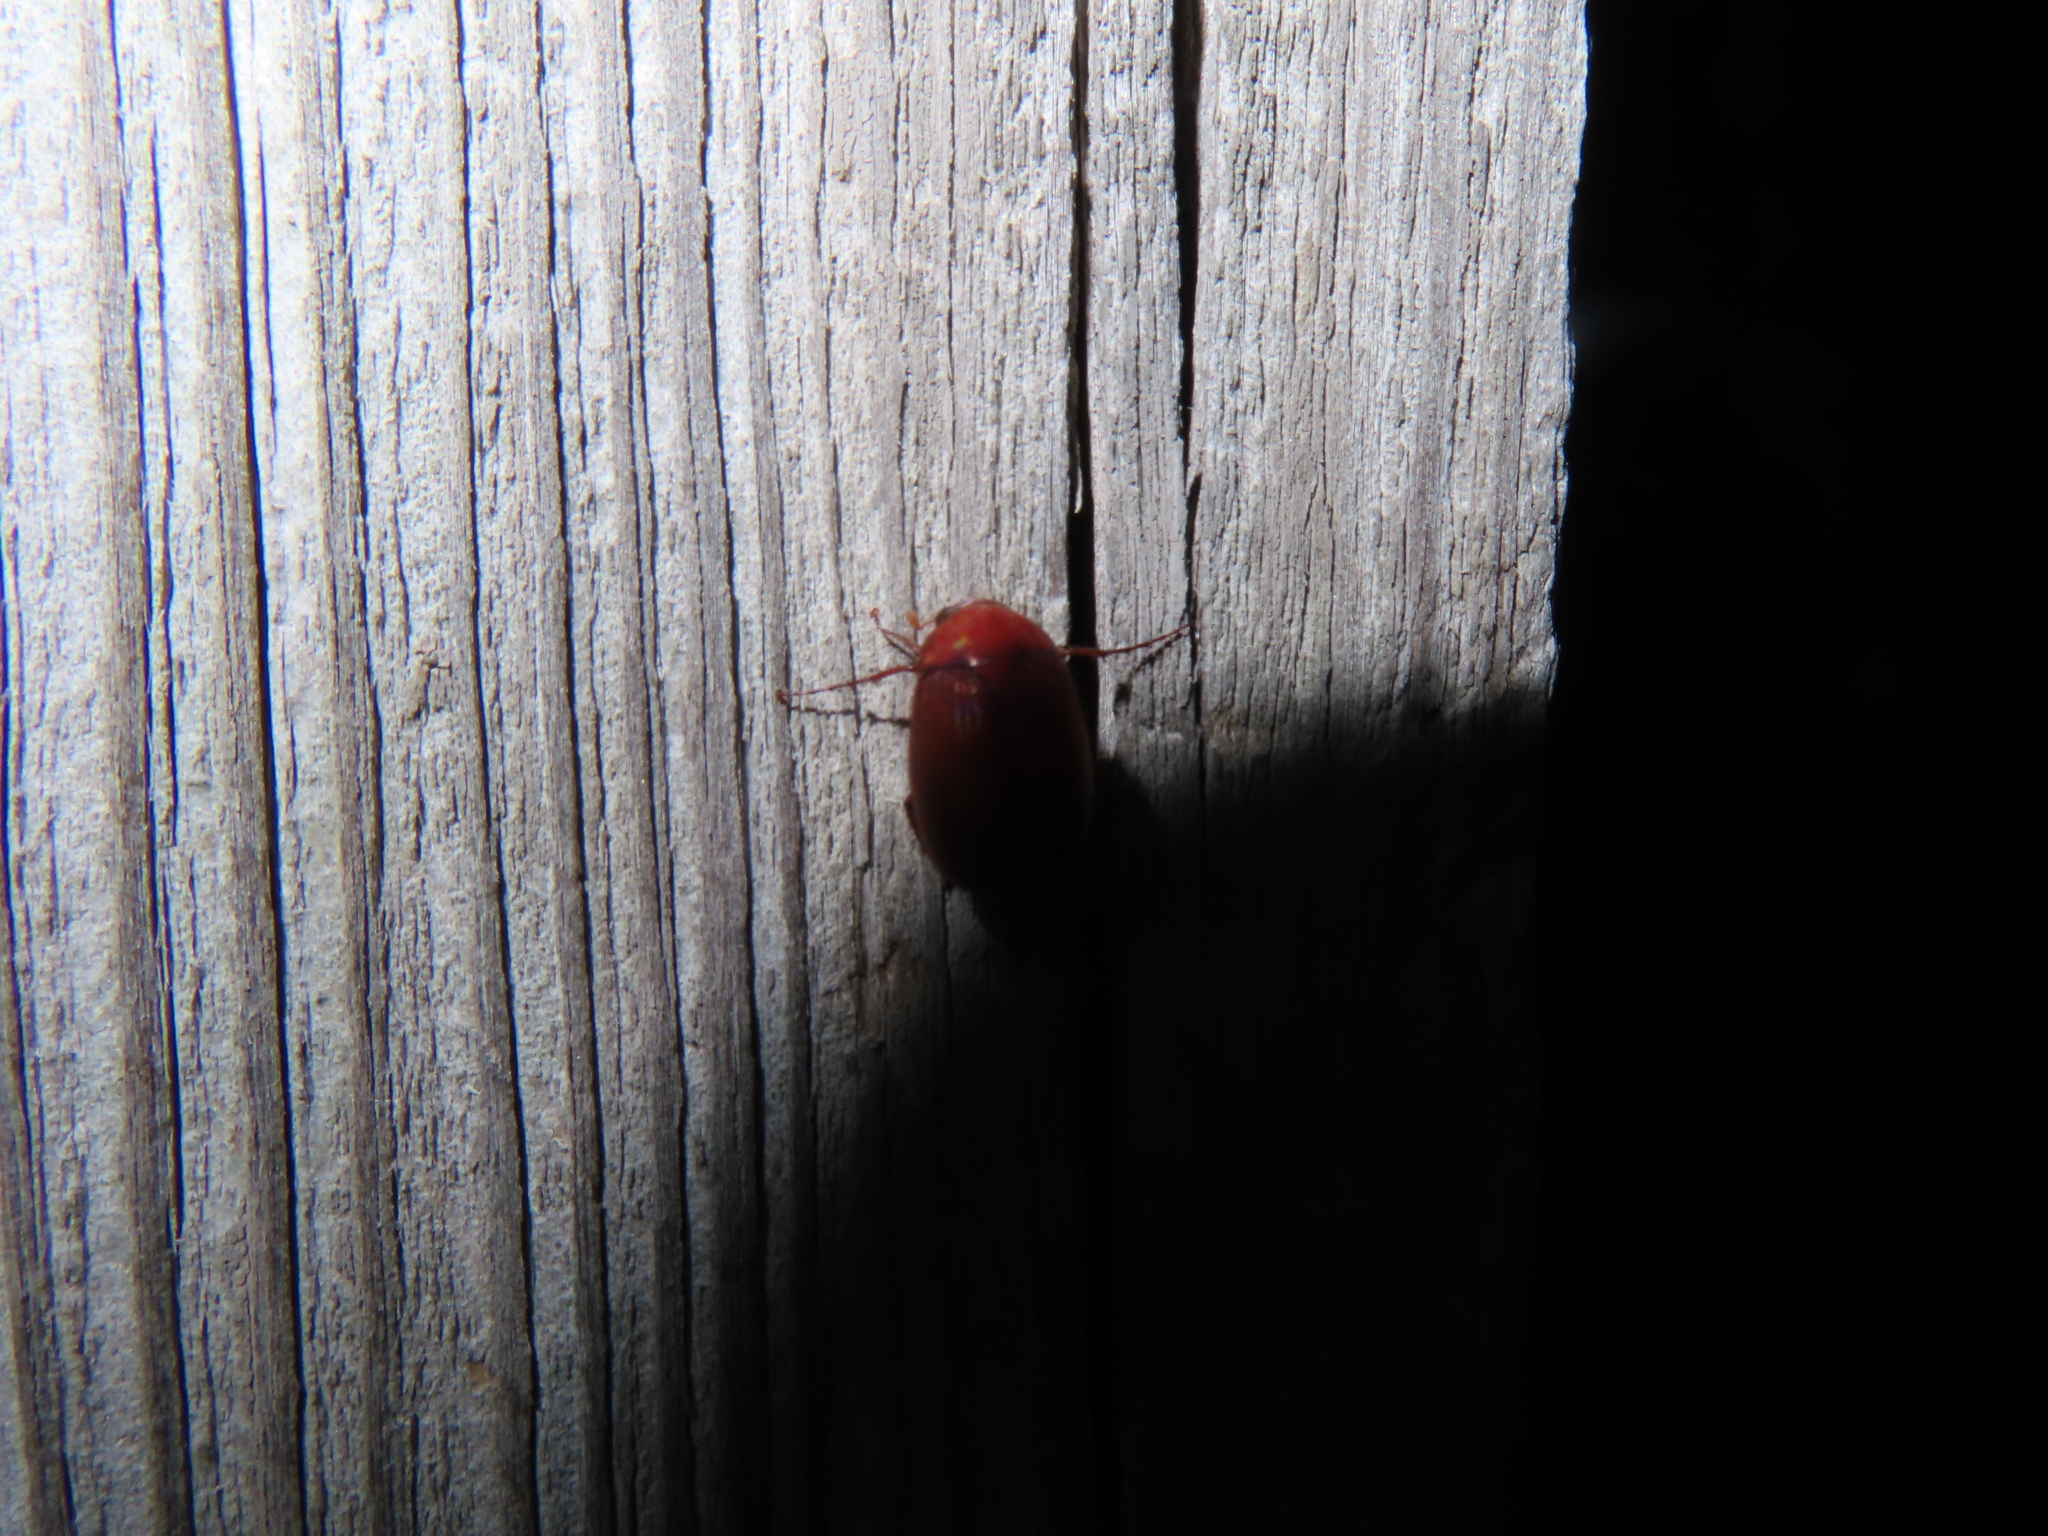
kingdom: Animalia
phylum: Arthropoda
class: Insecta
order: Coleoptera
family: Scarabaeidae
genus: Maladera
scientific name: Maladera formosae
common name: Asiatic garden beetle
